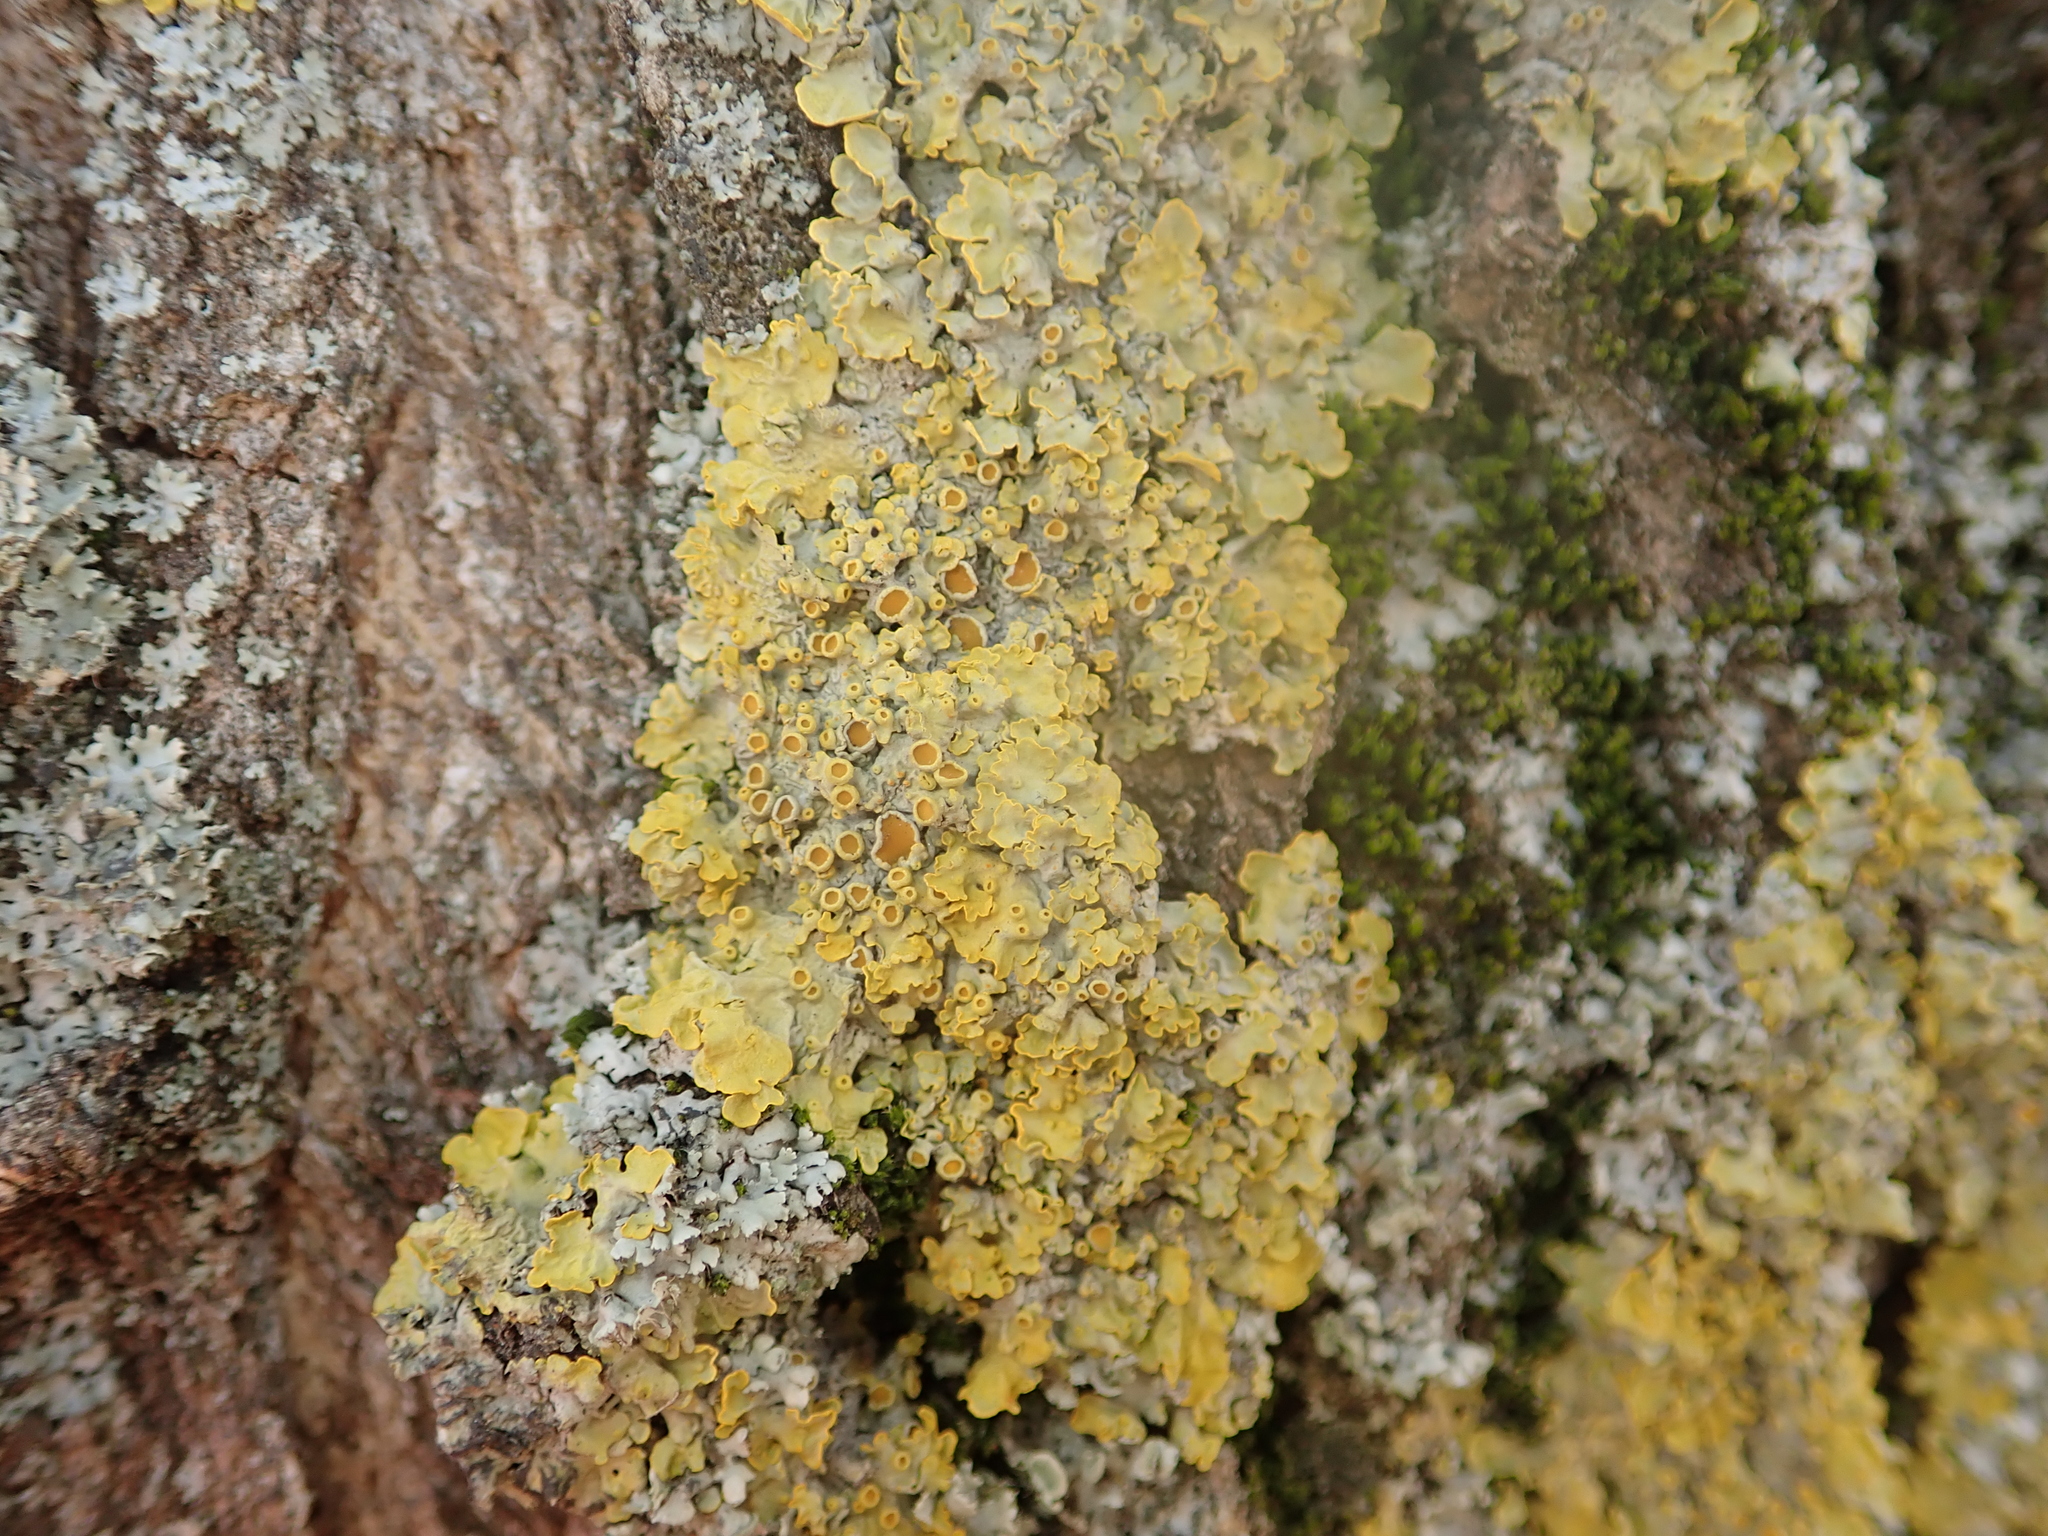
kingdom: Fungi
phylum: Ascomycota
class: Lecanoromycetes
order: Teloschistales
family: Teloschistaceae
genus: Xanthoria
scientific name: Xanthoria parietina
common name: Common orange lichen
